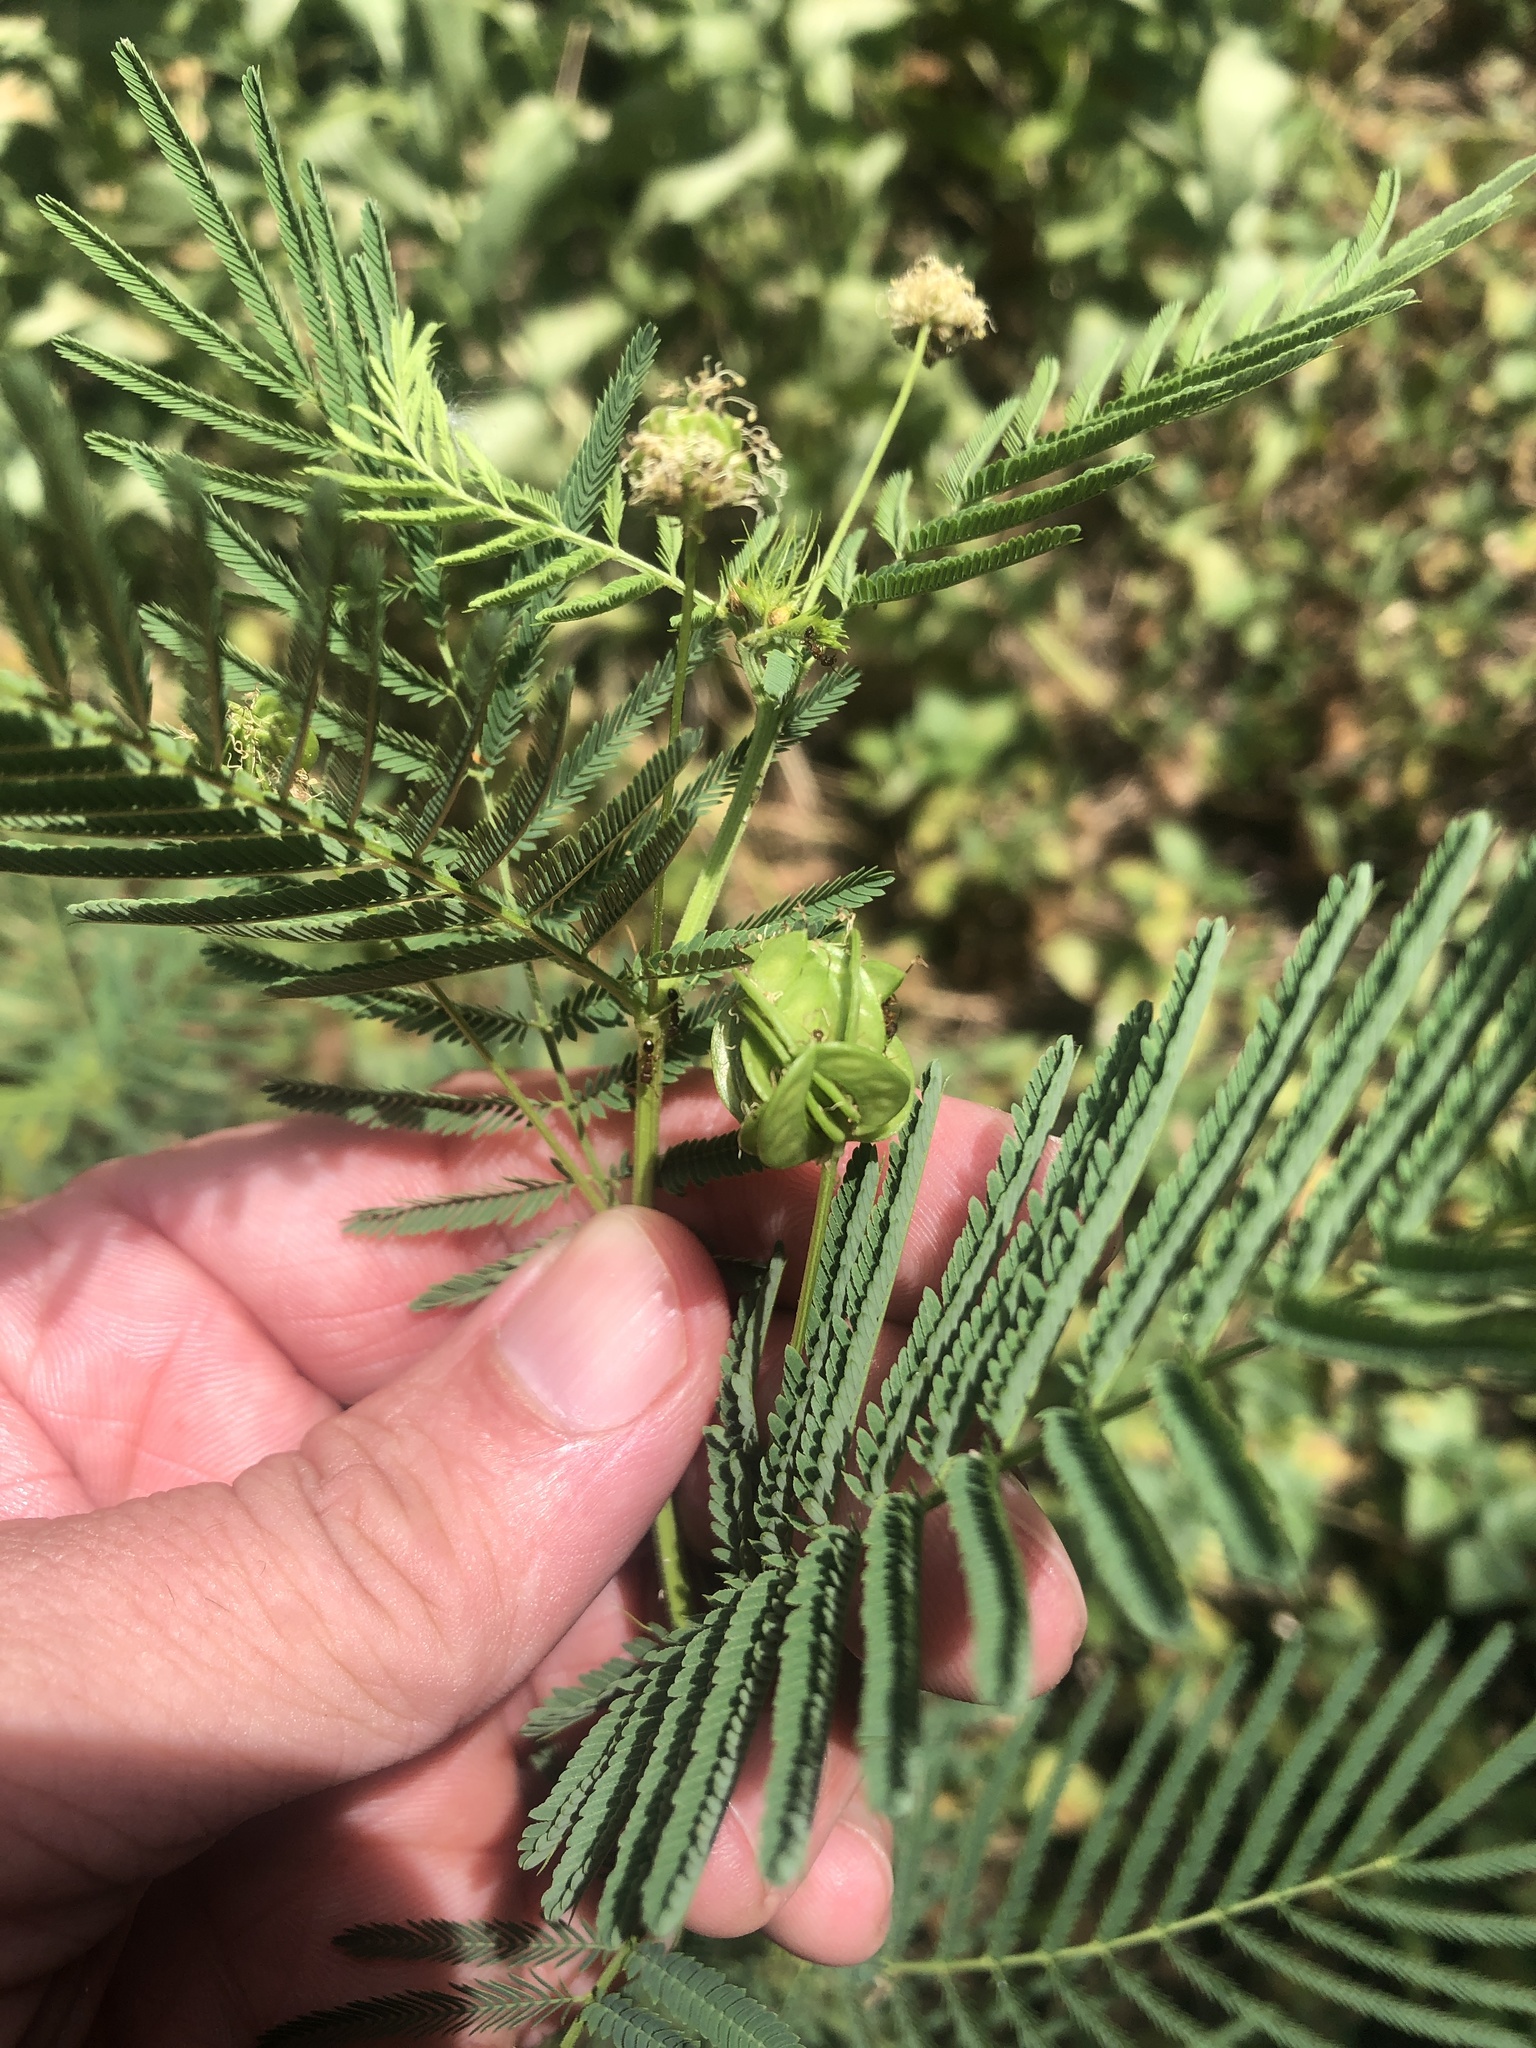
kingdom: Plantae
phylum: Tracheophyta
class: Magnoliopsida
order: Fabales
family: Fabaceae
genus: Desmanthus
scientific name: Desmanthus illinoensis
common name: Illinois bundle-flower
